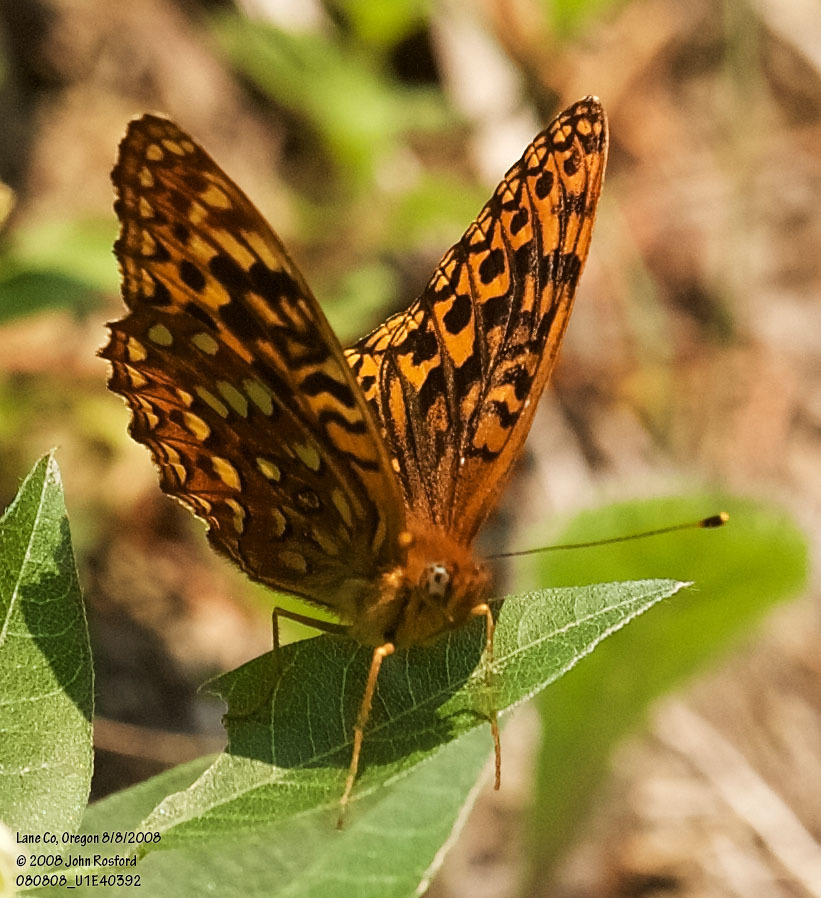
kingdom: Animalia
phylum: Arthropoda
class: Insecta
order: Lepidoptera
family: Nymphalidae
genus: Speyeria
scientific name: Speyeria hydaspe
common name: Hydaspe fritillary
